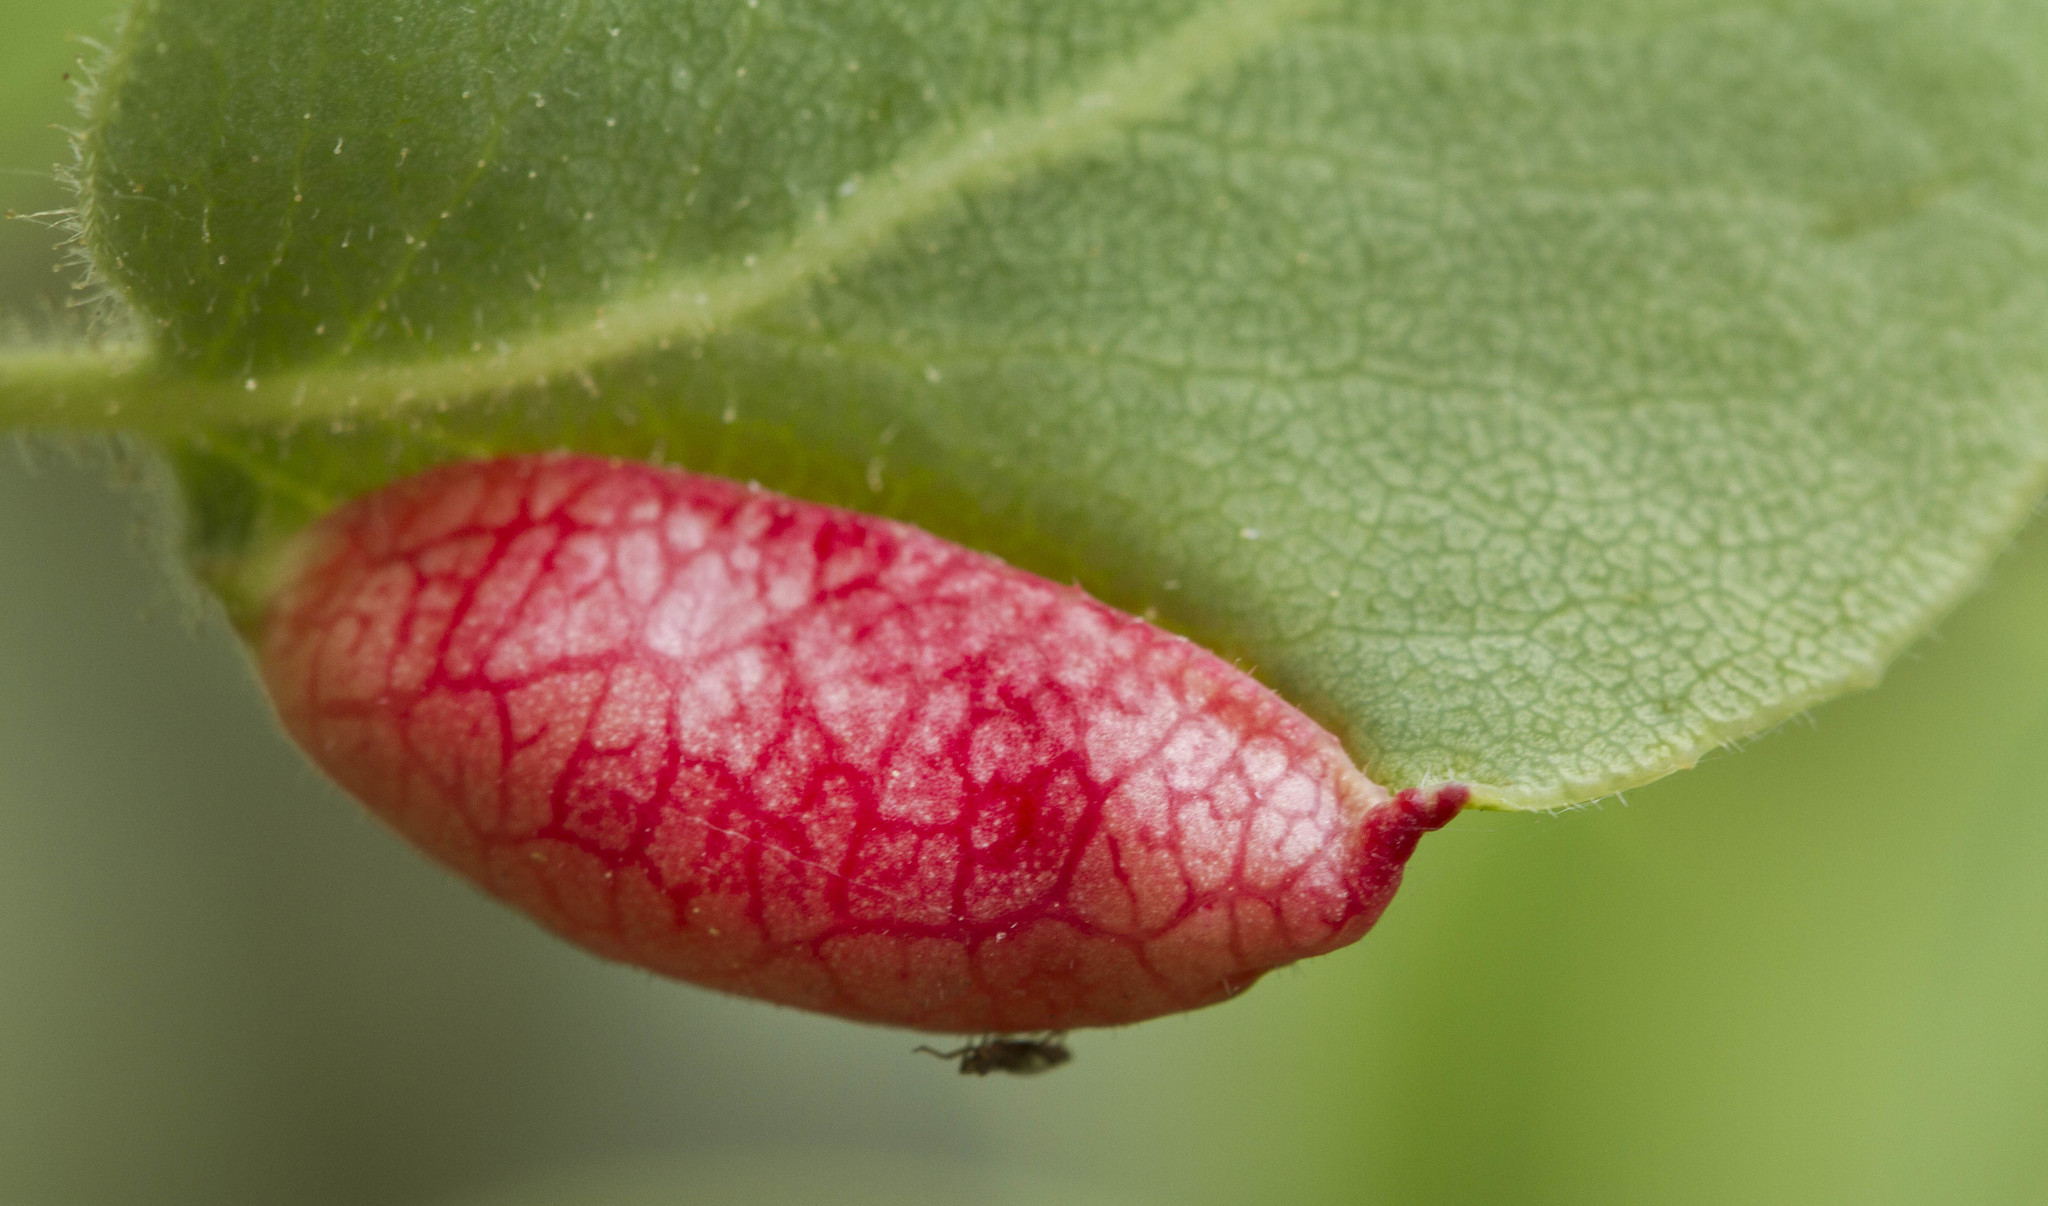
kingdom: Animalia
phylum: Arthropoda
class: Insecta
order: Hemiptera
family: Aphididae
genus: Tamalia
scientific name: Tamalia coweni
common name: Manzanita leafgall aphid
